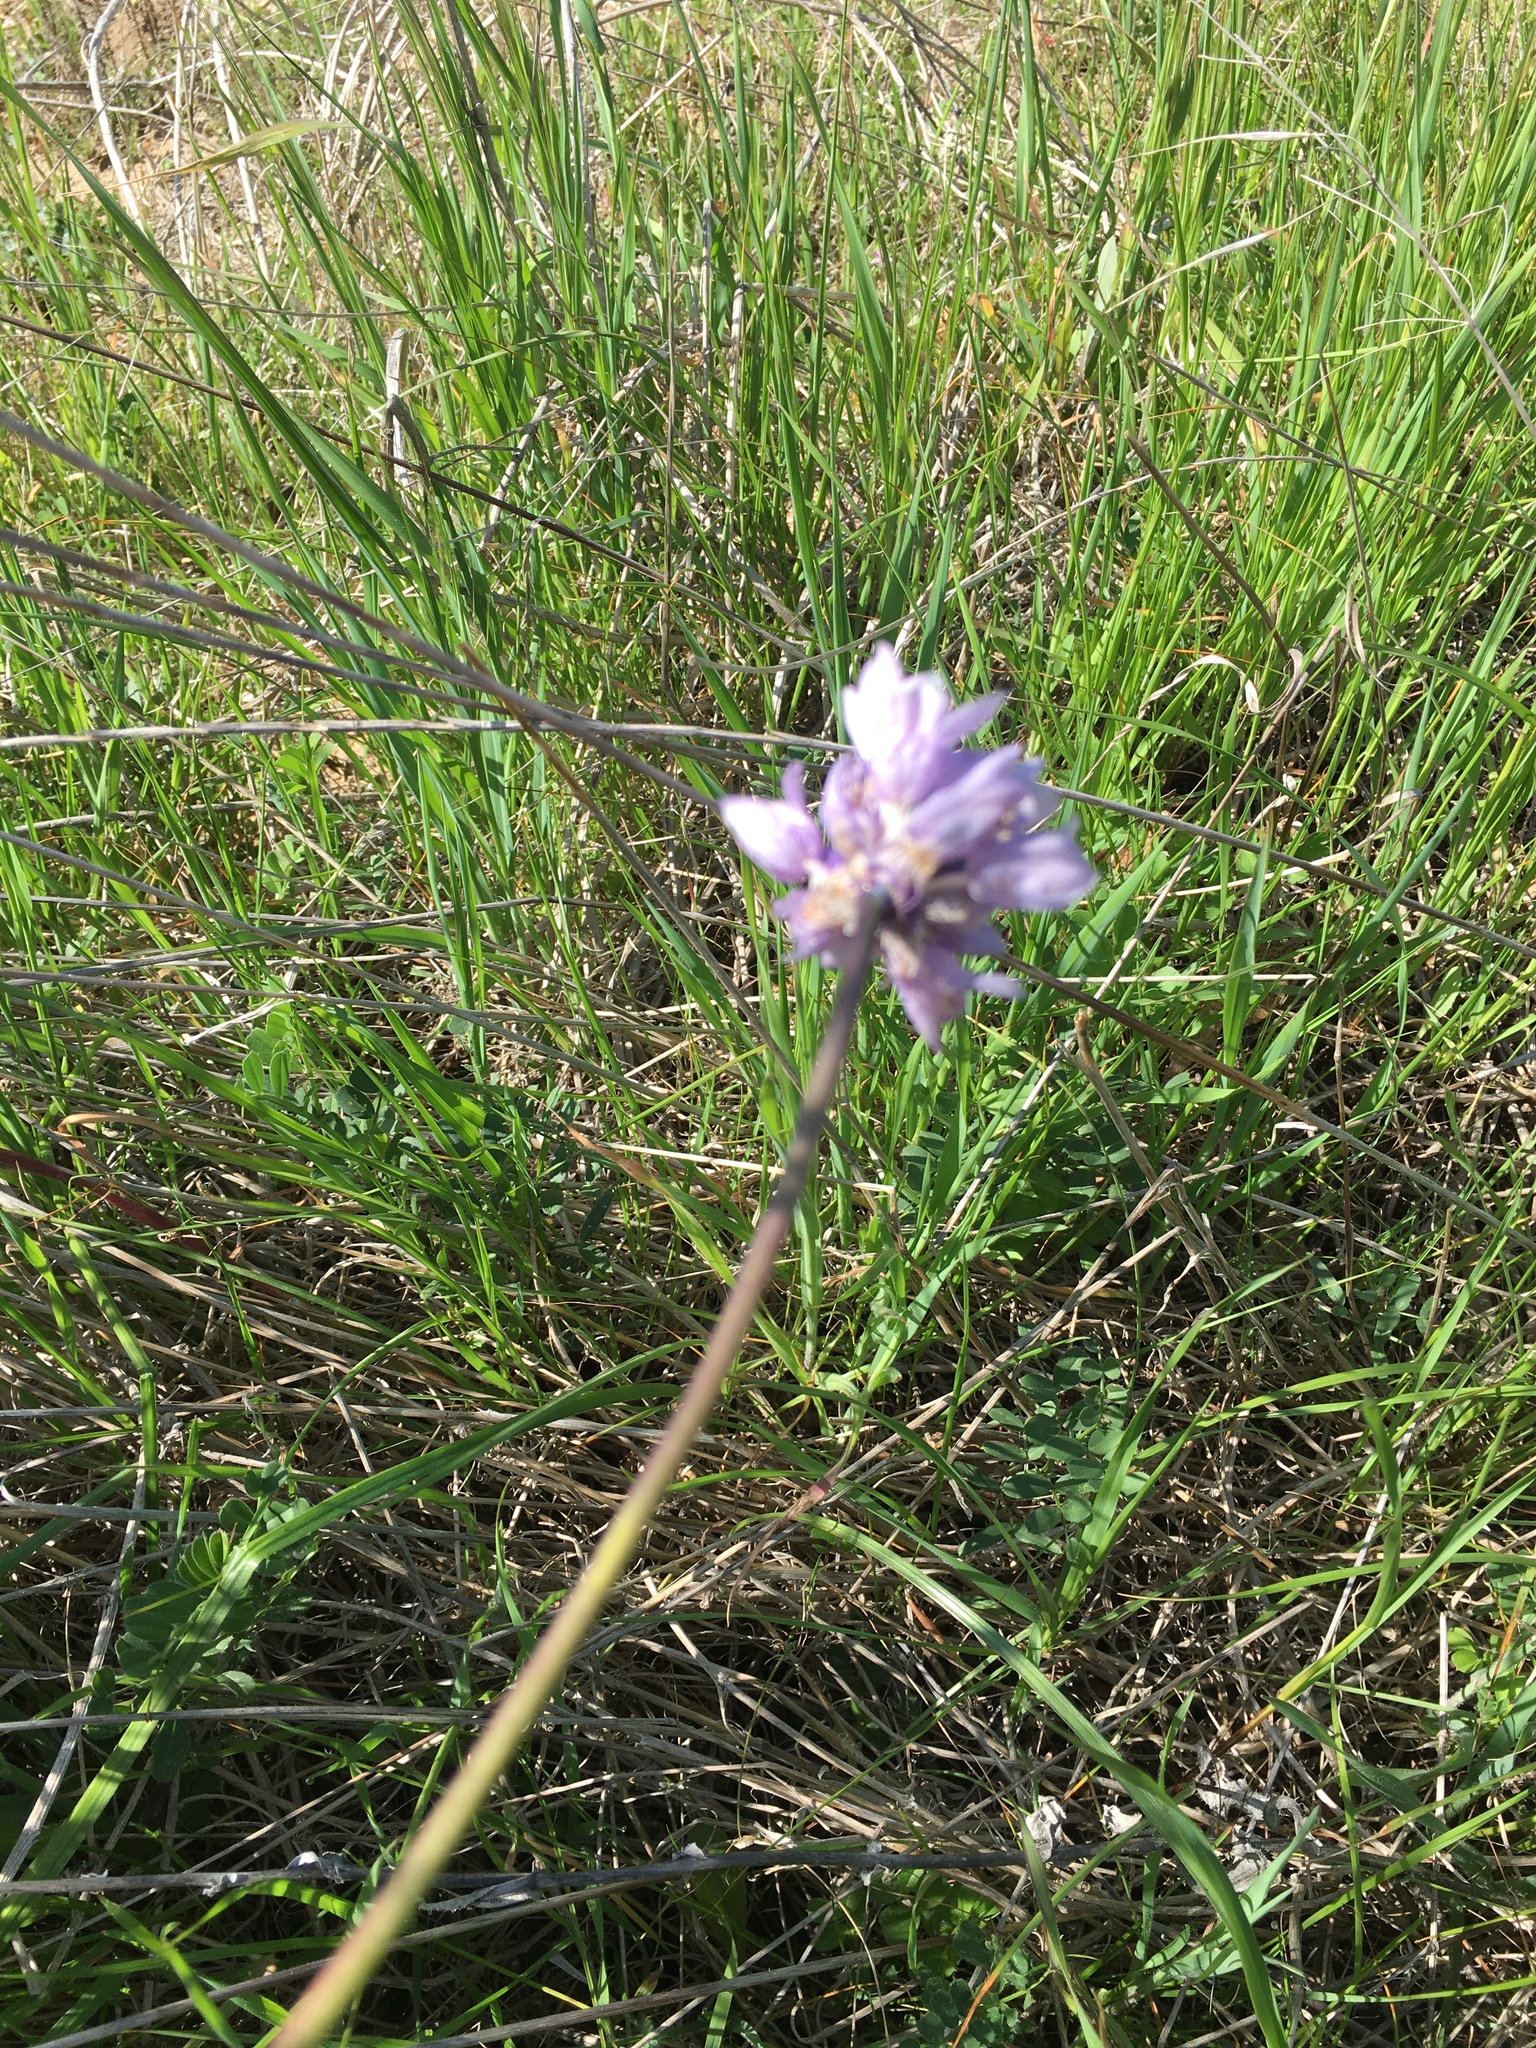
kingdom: Plantae
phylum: Tracheophyta
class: Liliopsida
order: Asparagales
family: Asparagaceae
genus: Dipterostemon
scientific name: Dipterostemon capitatus
